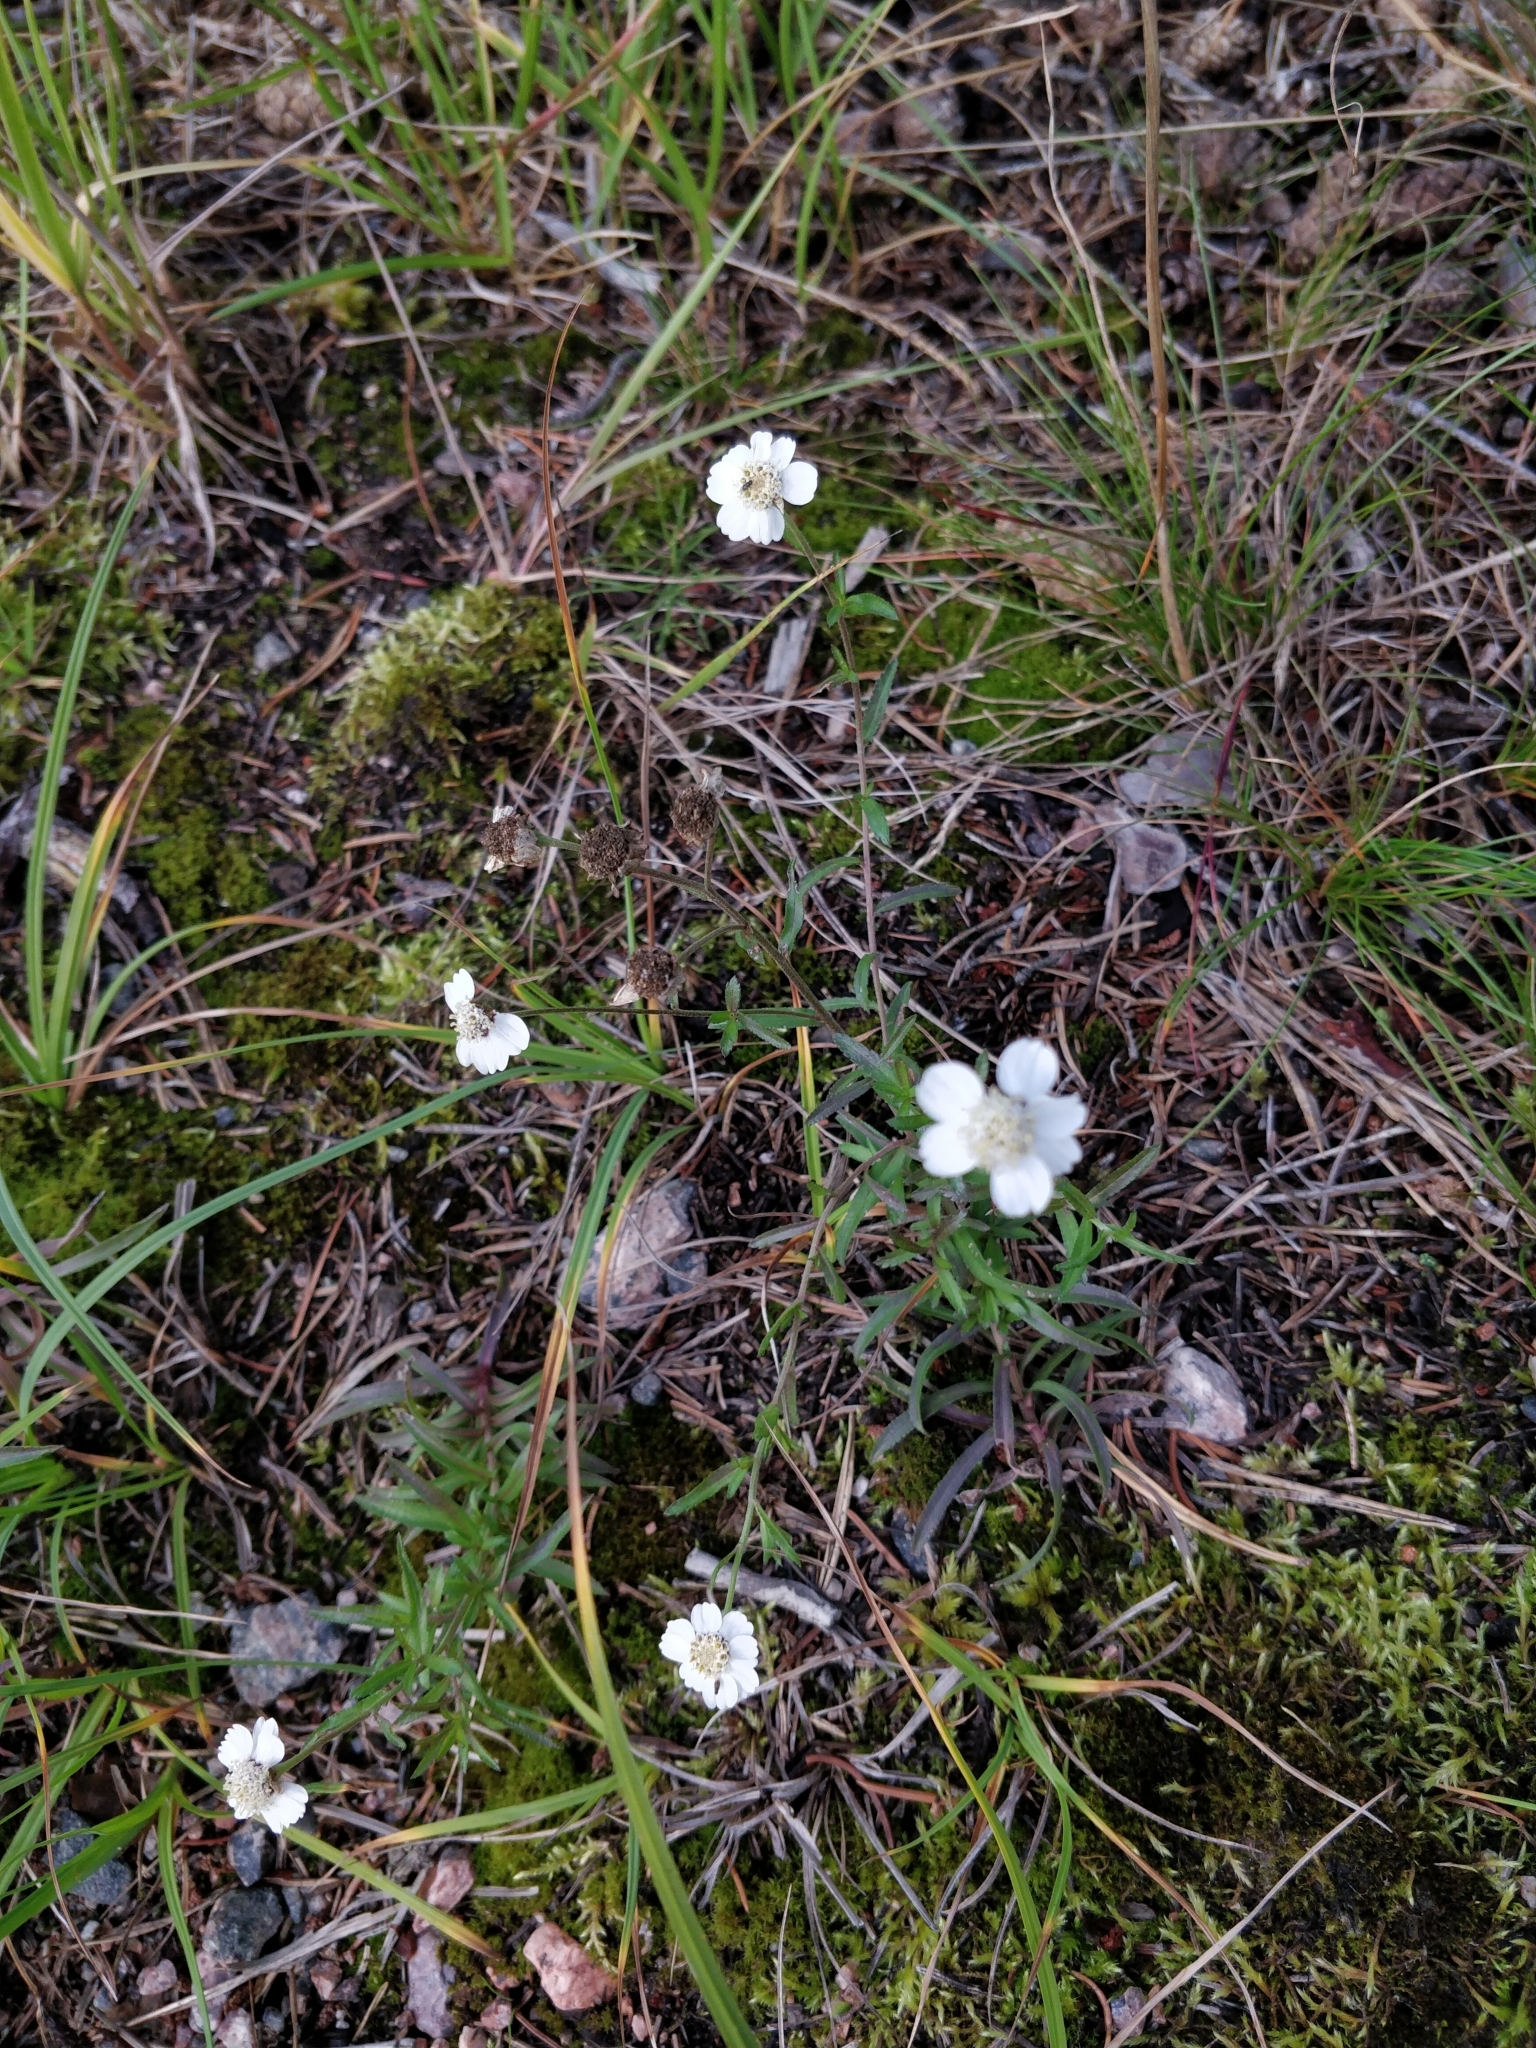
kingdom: Plantae
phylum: Tracheophyta
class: Magnoliopsida
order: Asterales
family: Asteraceae
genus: Achillea
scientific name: Achillea ptarmica
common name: Sneezeweed
